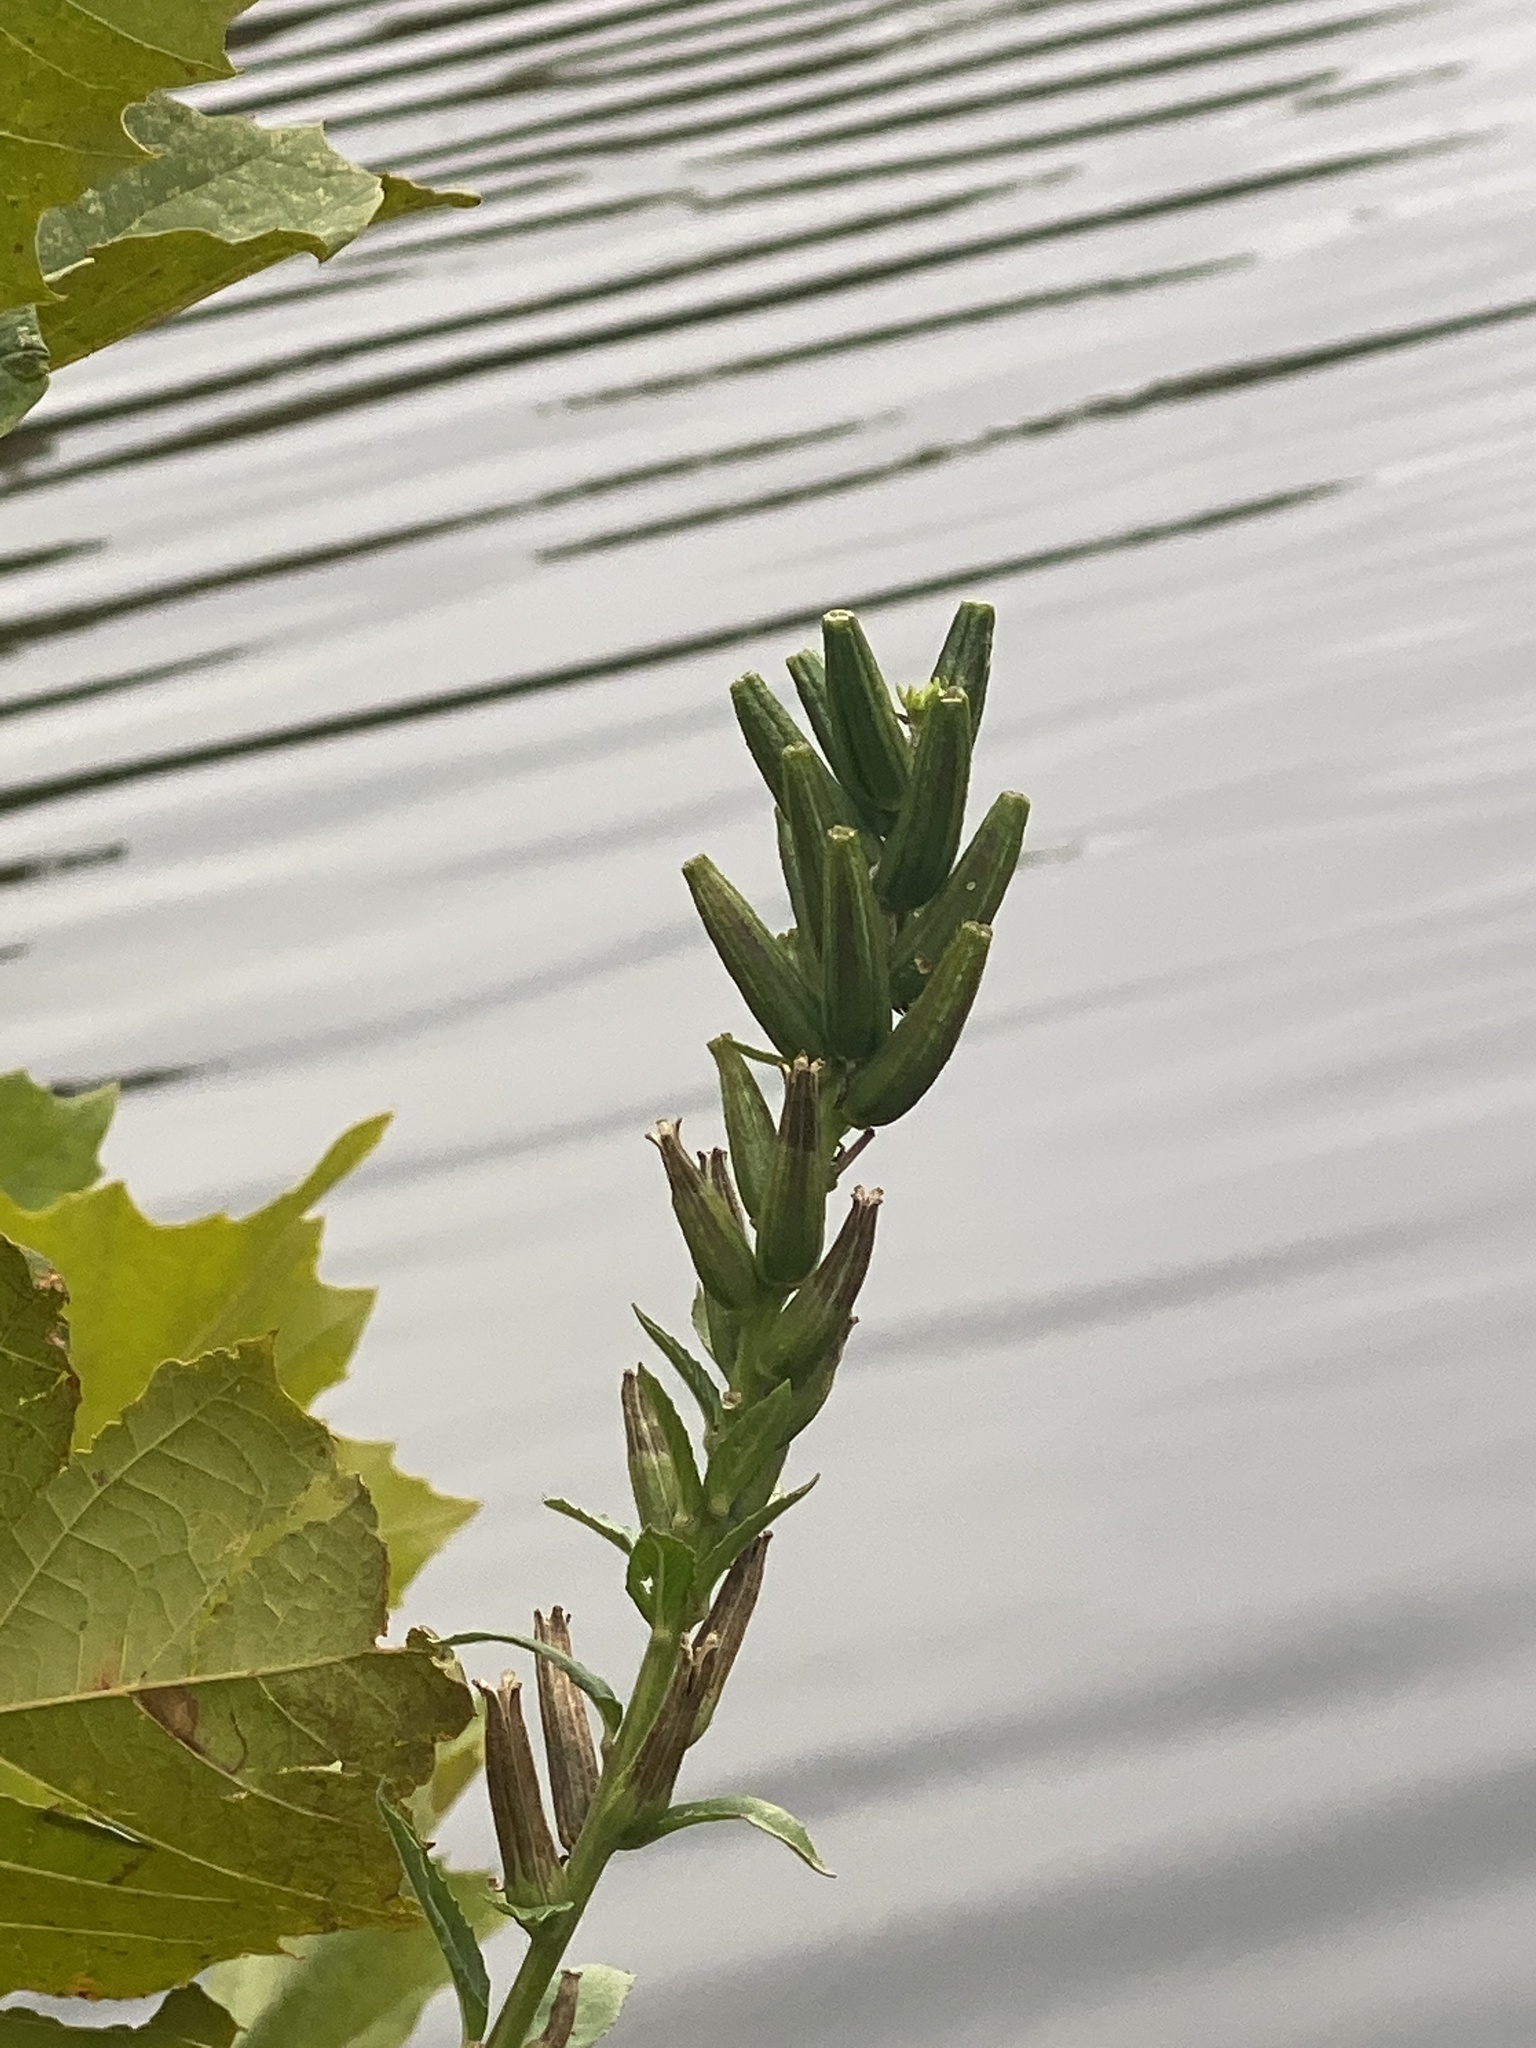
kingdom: Plantae
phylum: Tracheophyta
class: Magnoliopsida
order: Myrtales
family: Onagraceae
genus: Oenothera
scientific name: Oenothera biennis
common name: Common evening-primrose
